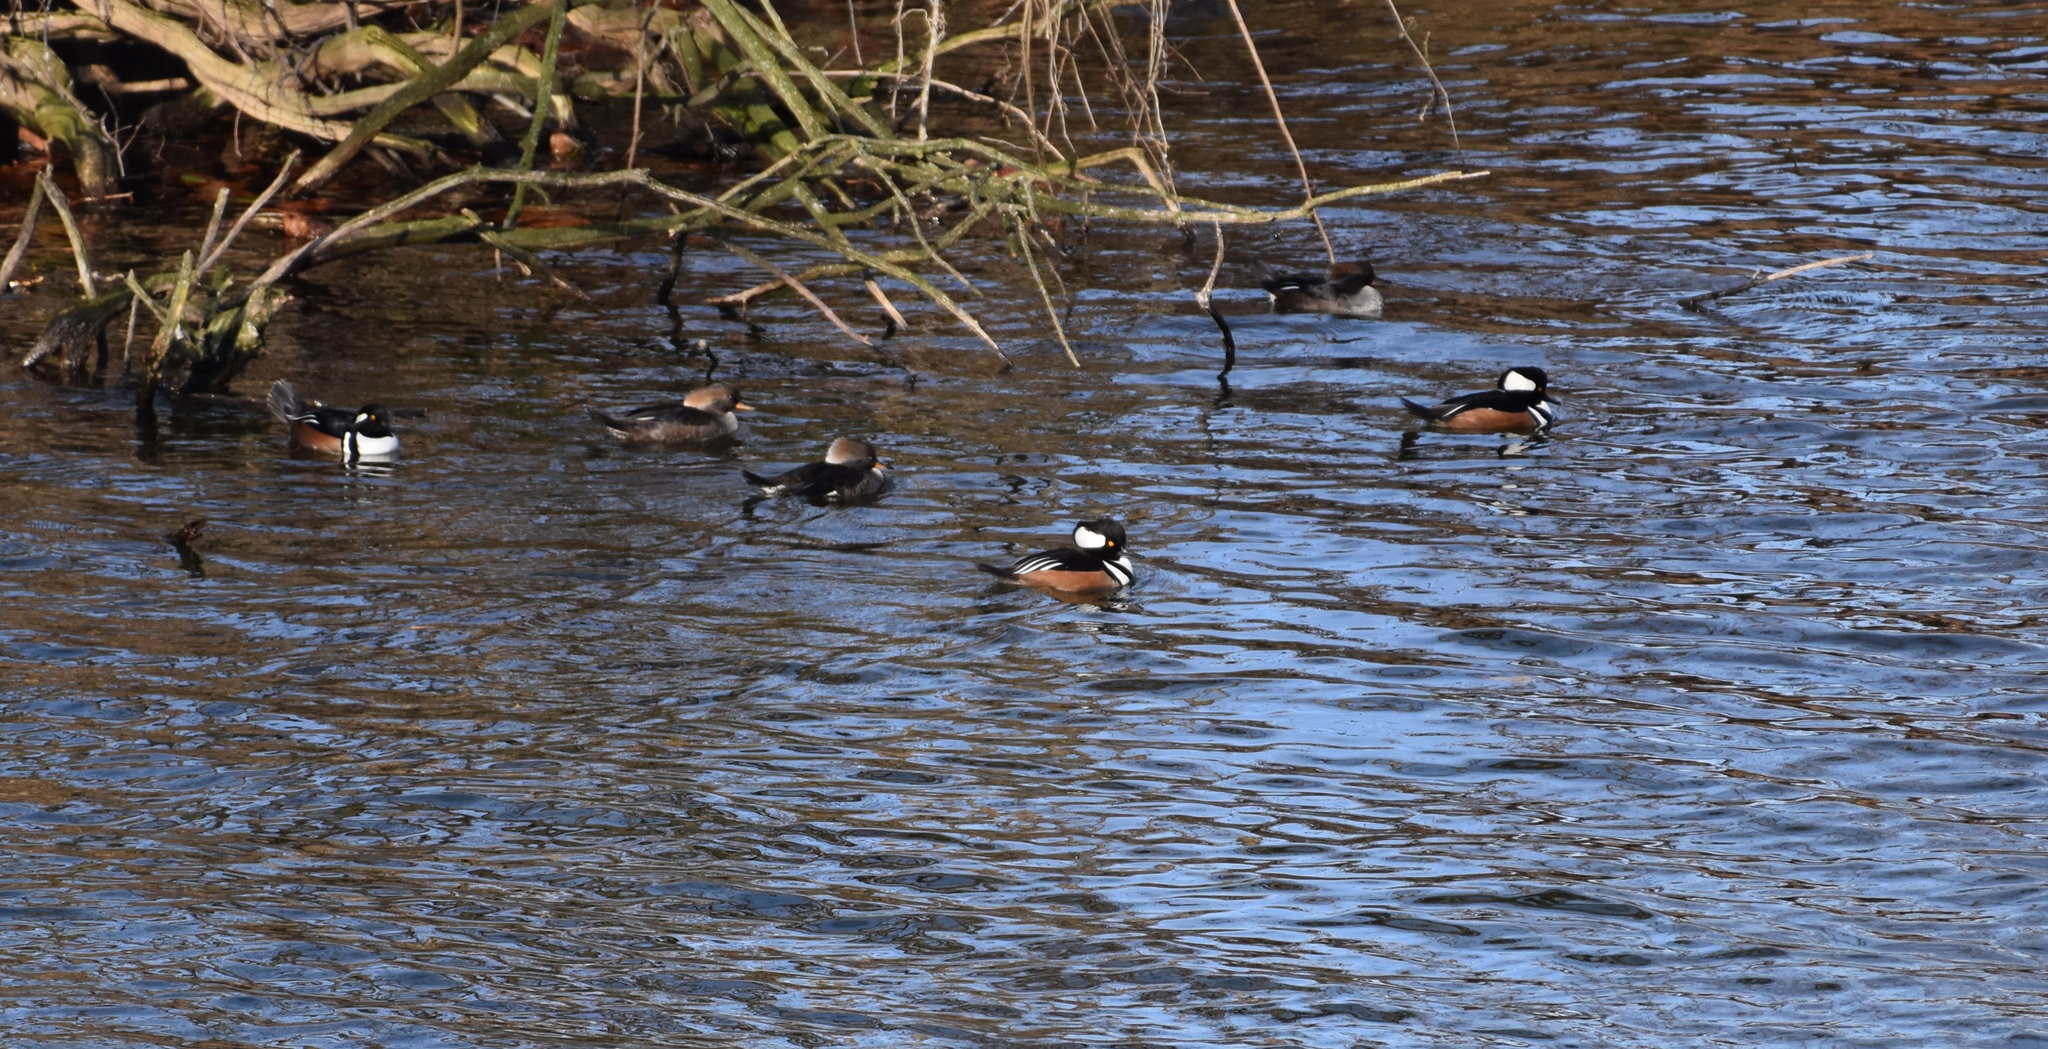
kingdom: Animalia
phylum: Chordata
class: Aves
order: Anseriformes
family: Anatidae
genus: Lophodytes
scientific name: Lophodytes cucullatus
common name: Hooded merganser
